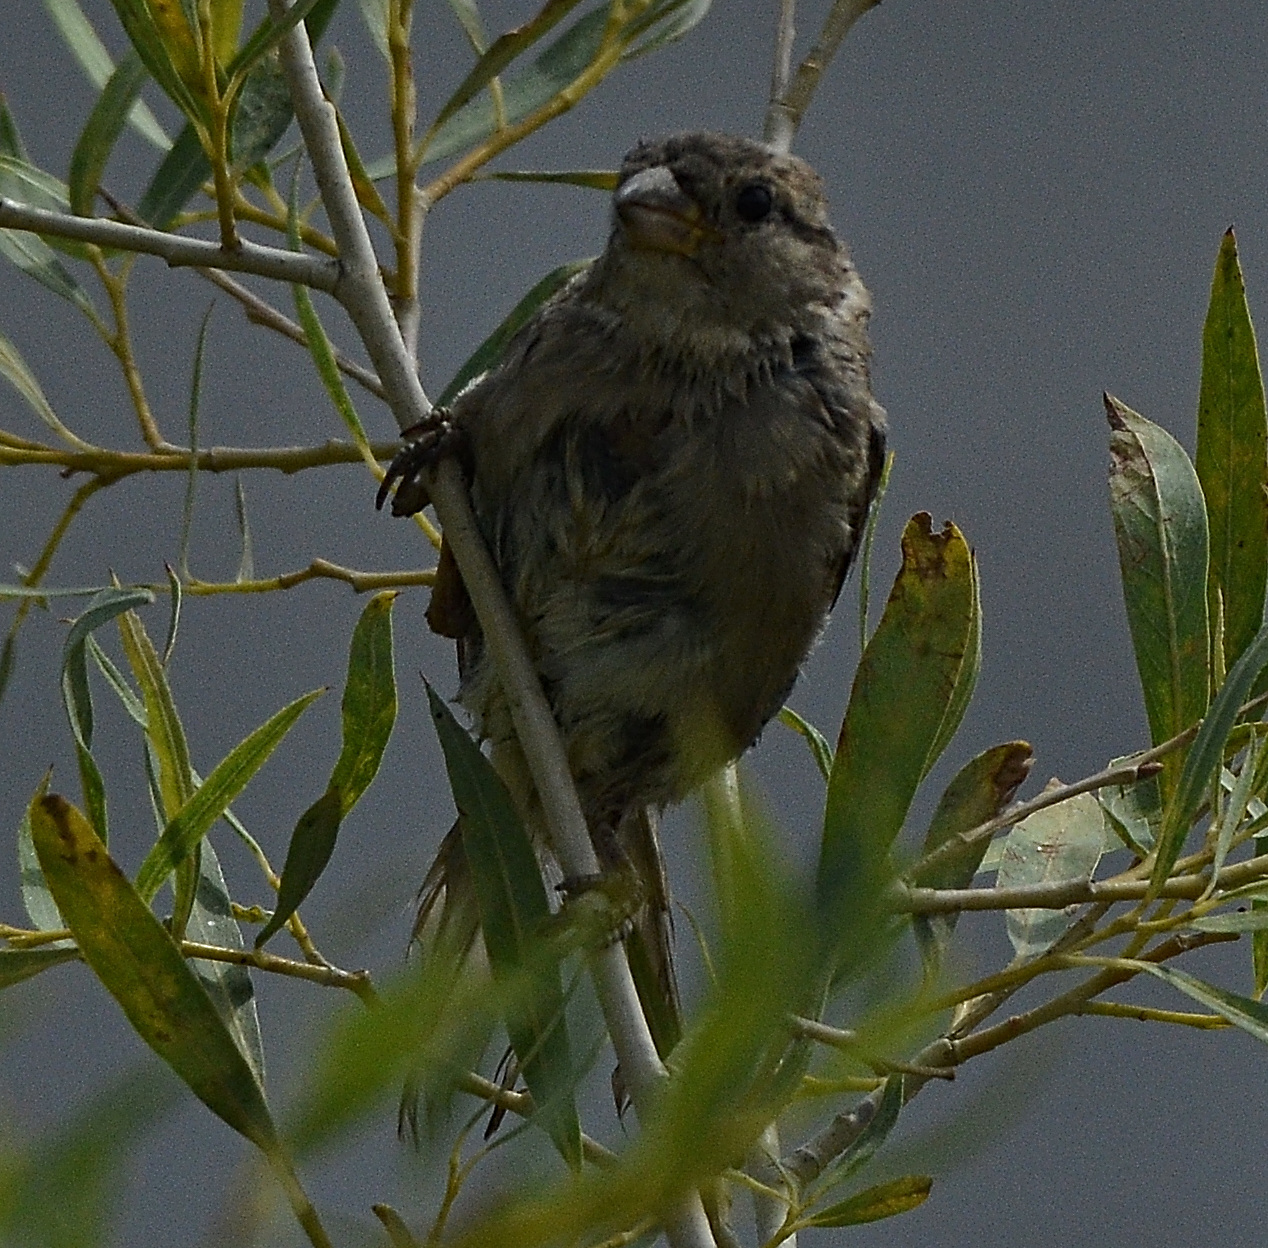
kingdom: Animalia
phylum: Chordata
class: Aves
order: Passeriformes
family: Passeridae
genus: Passer
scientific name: Passer domesticus
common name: House sparrow
